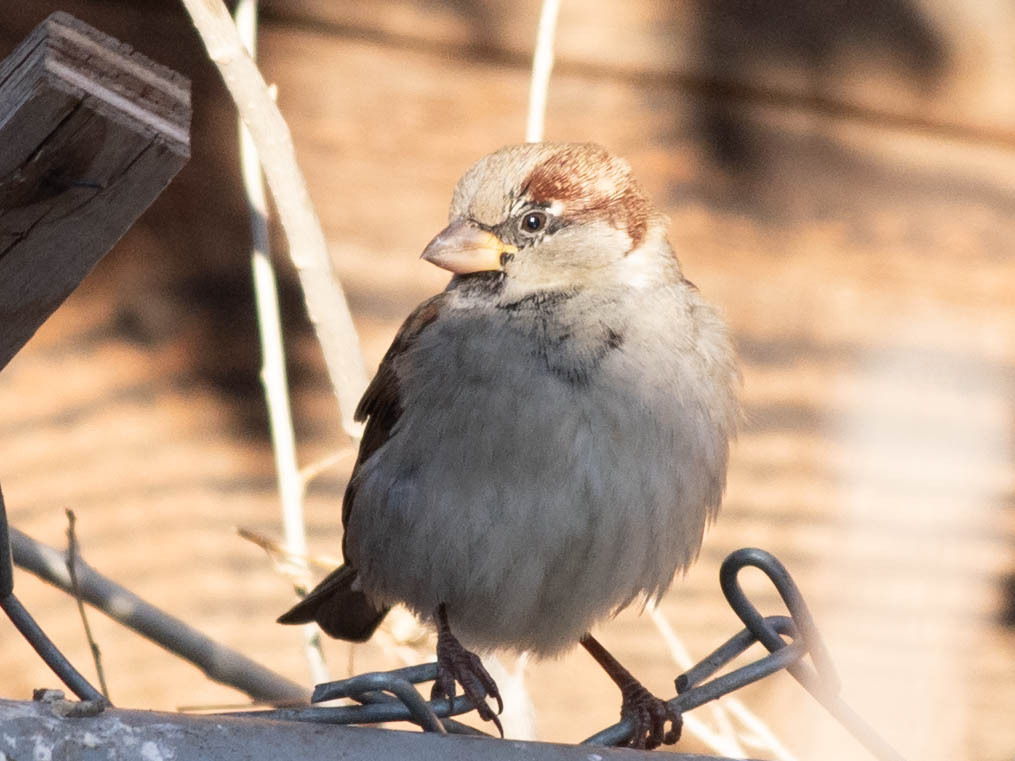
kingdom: Animalia
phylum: Chordata
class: Aves
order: Passeriformes
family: Passeridae
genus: Passer
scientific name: Passer domesticus
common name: House sparrow
